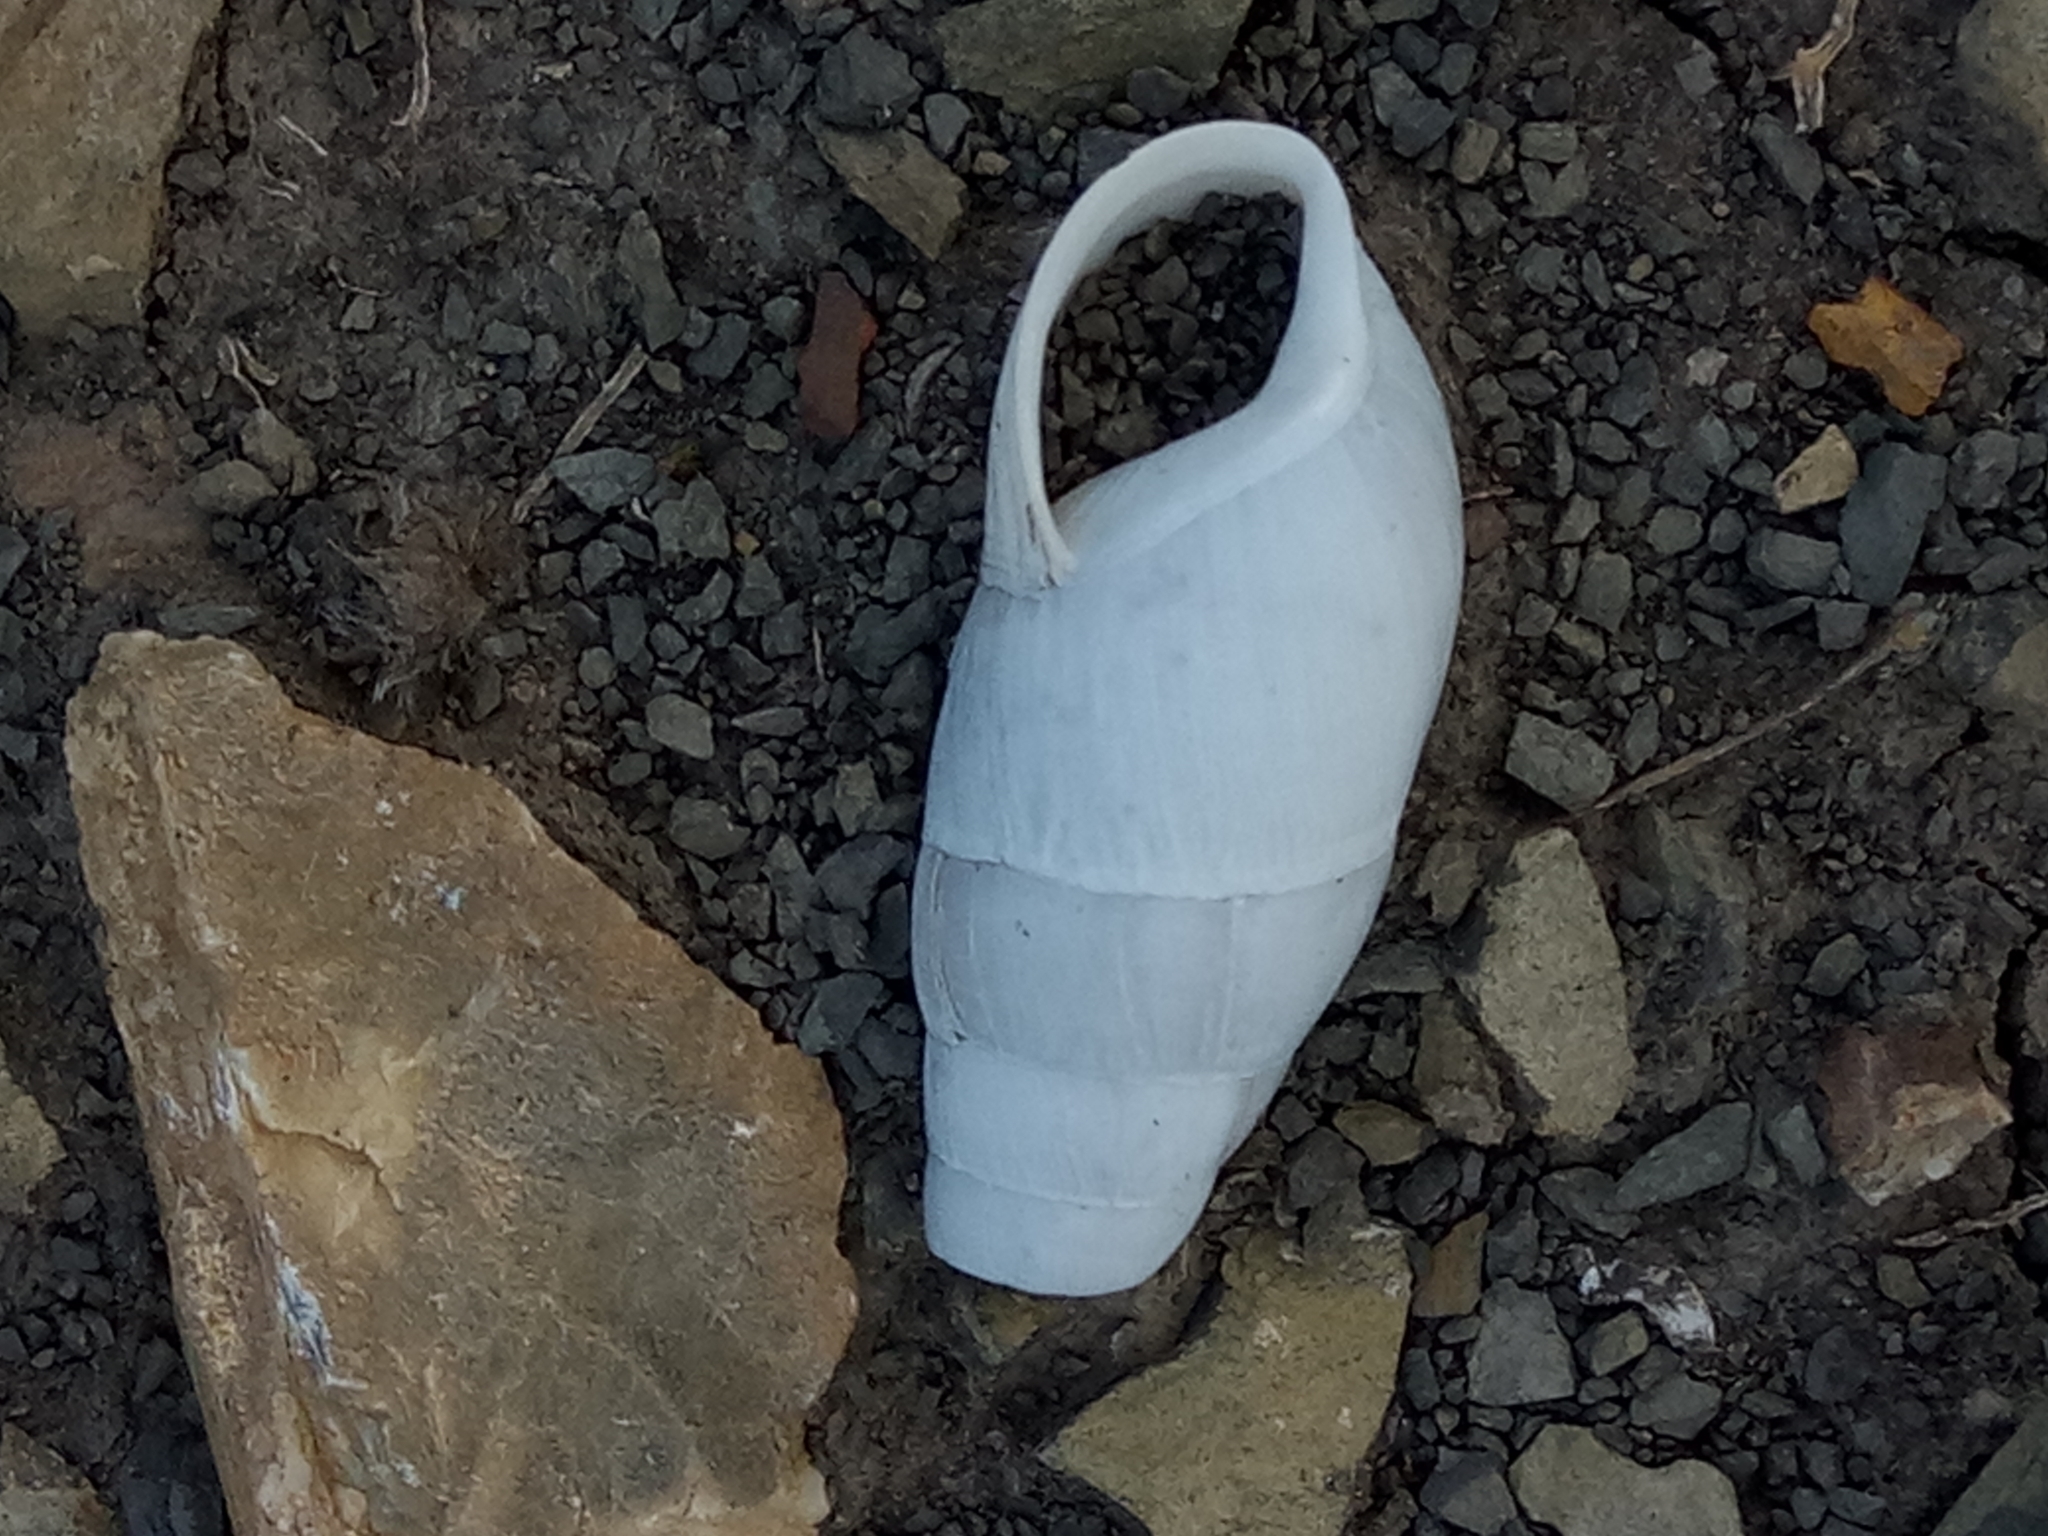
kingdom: Animalia
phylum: Mollusca
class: Gastropoda
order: Stylommatophora
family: Achatinidae
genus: Rumina
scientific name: Rumina decollata
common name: Decollate snail
